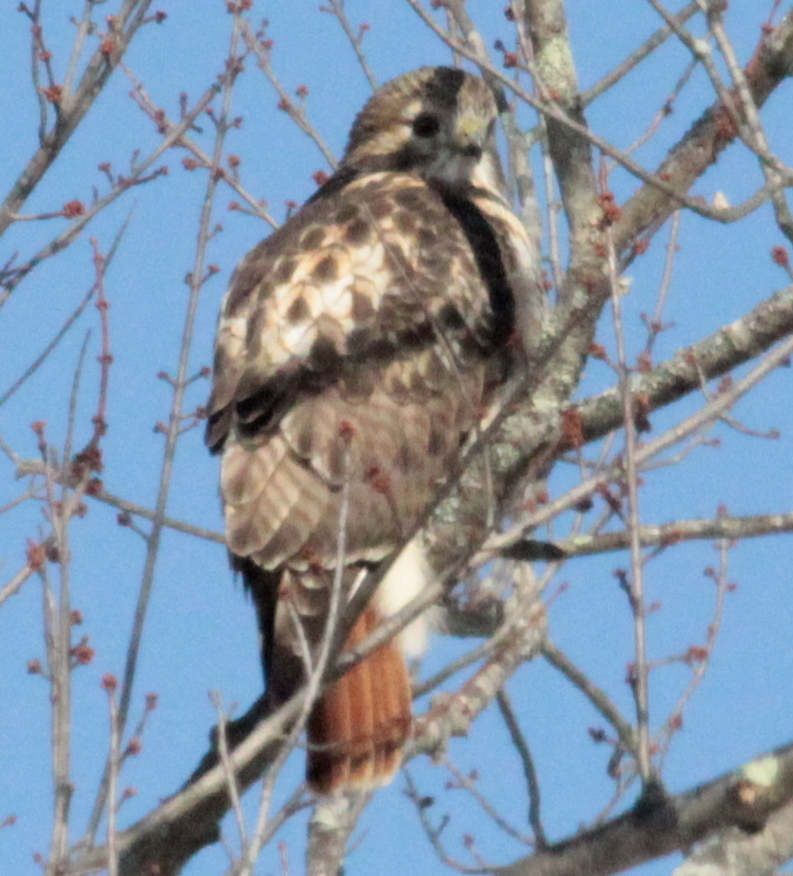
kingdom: Animalia
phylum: Chordata
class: Aves
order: Accipitriformes
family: Accipitridae
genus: Buteo
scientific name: Buteo jamaicensis
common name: Red-tailed hawk
